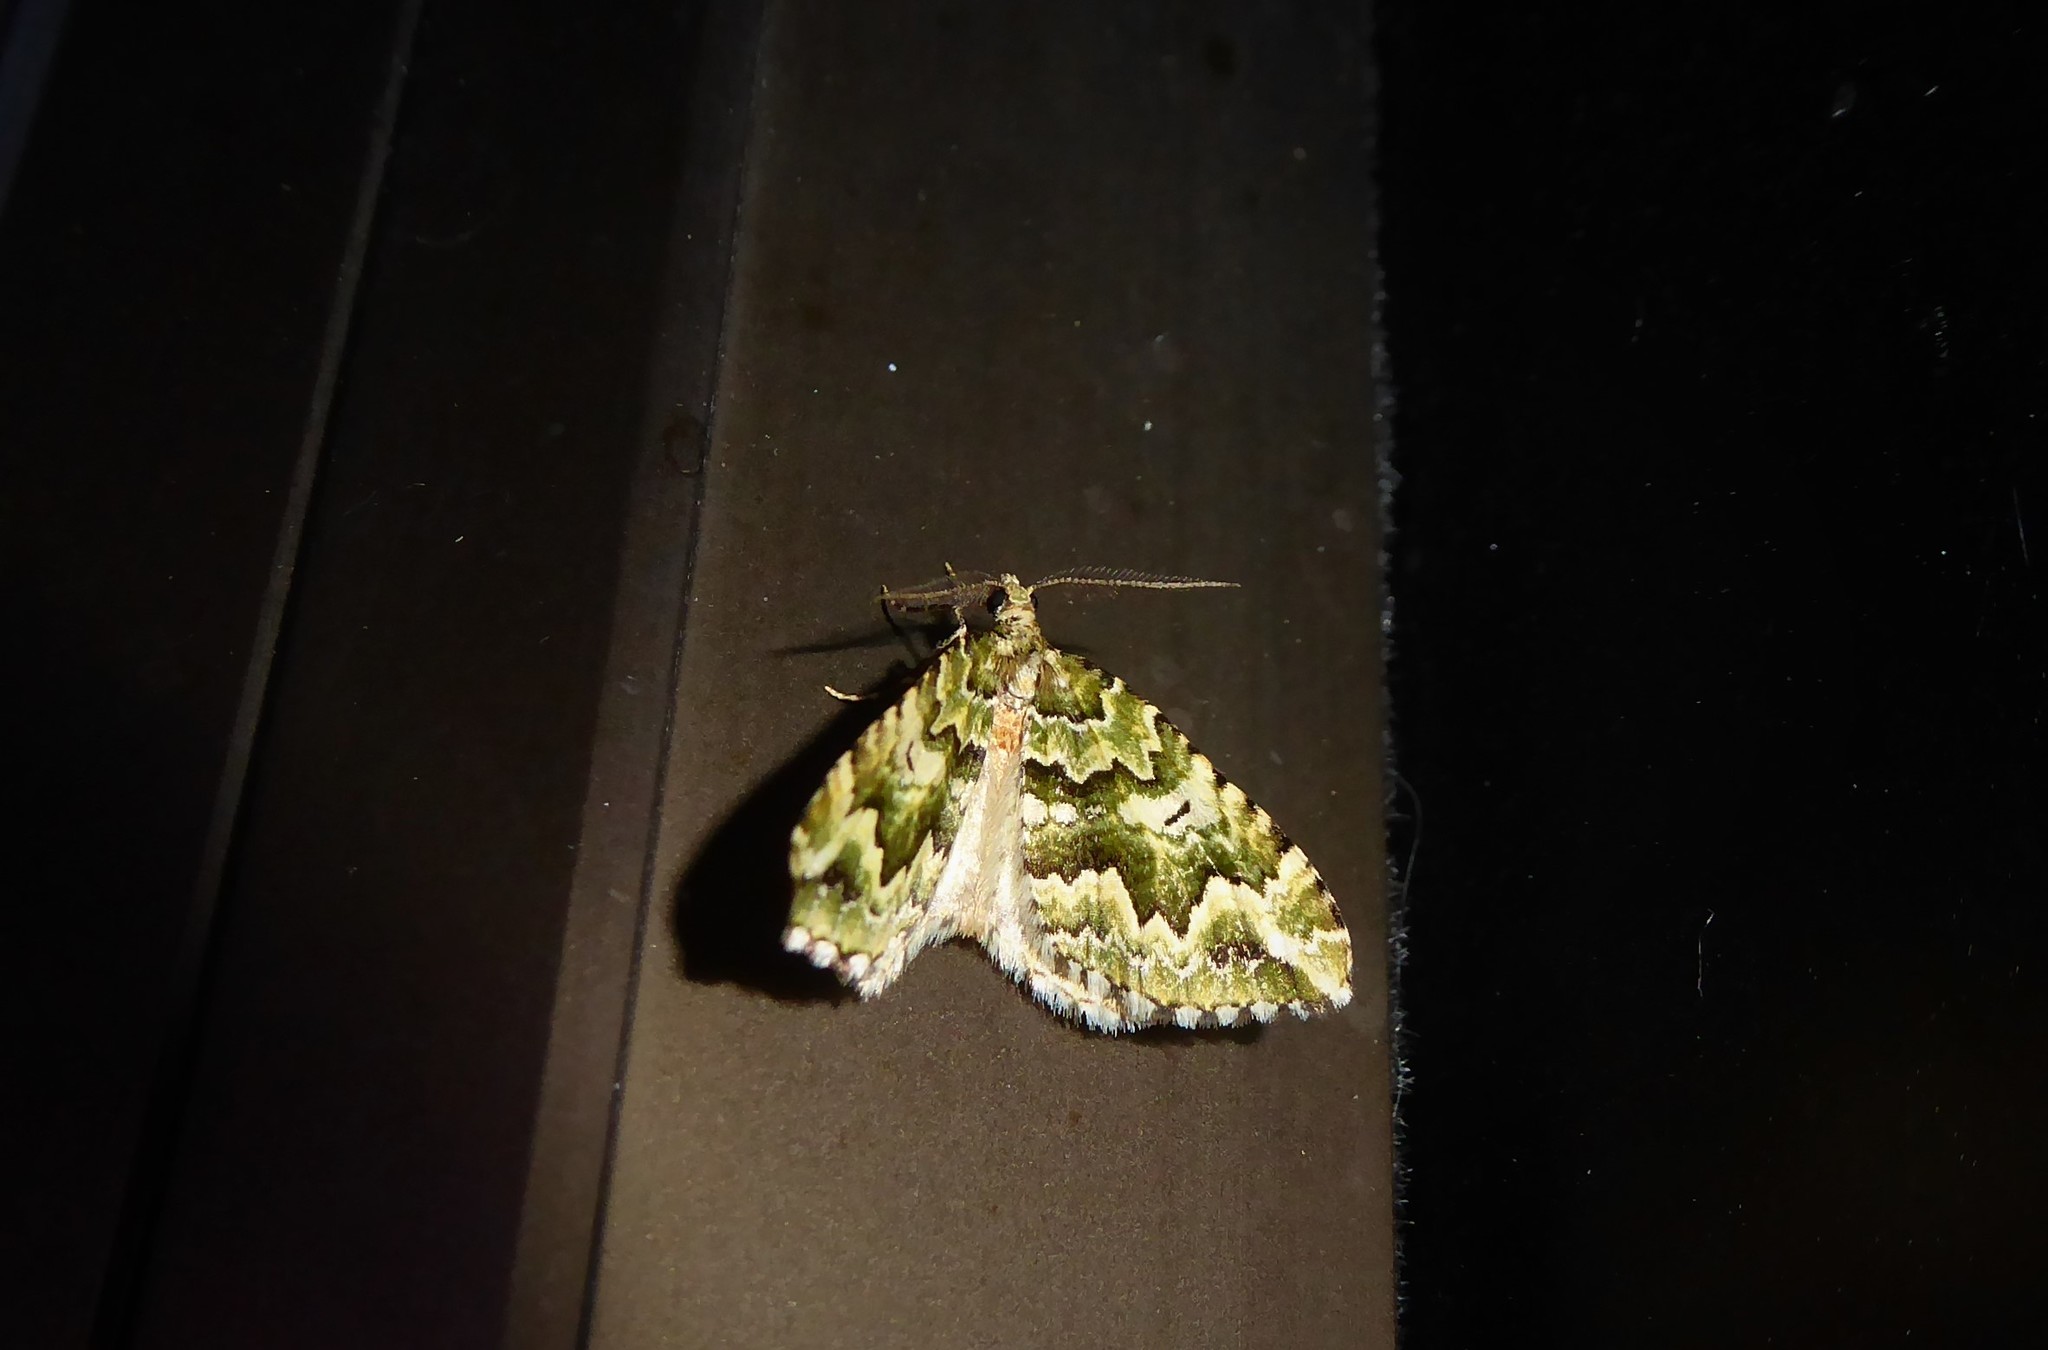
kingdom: Animalia
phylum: Arthropoda
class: Insecta
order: Lepidoptera
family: Geometridae
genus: Asaphodes
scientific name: Asaphodes beata
